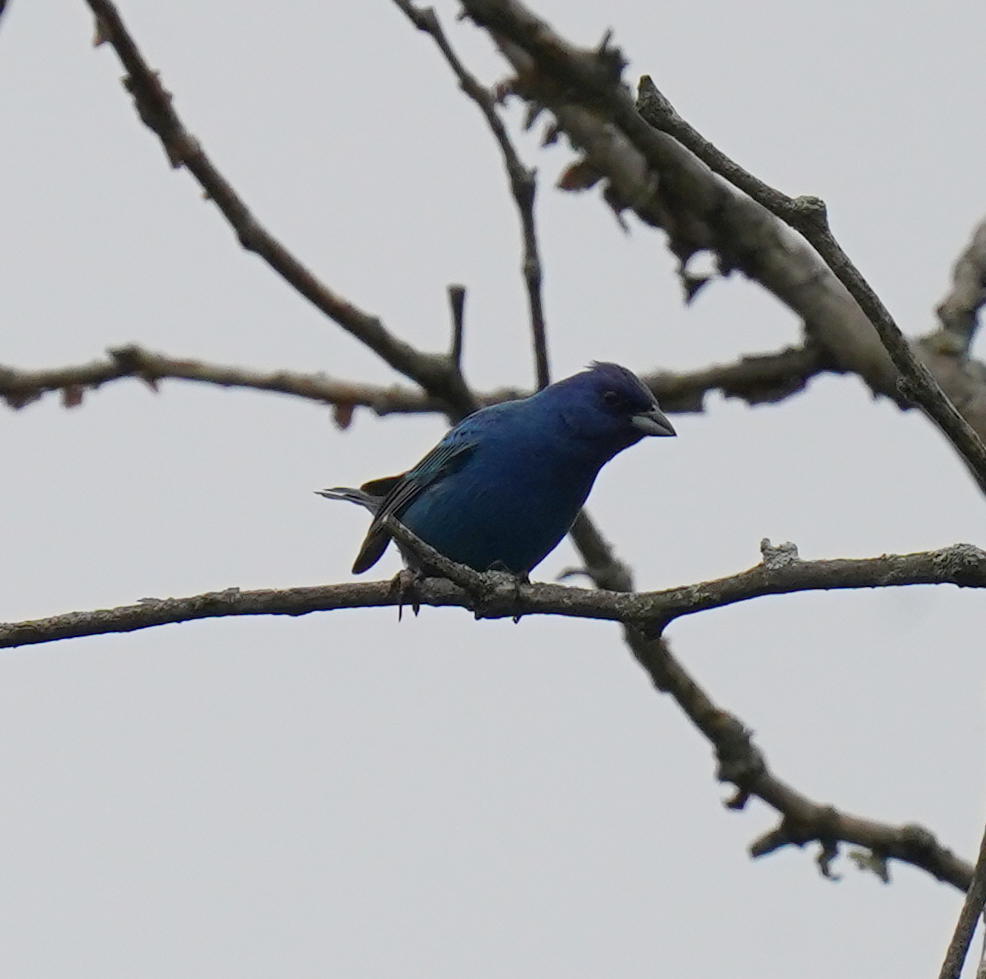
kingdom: Animalia
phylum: Chordata
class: Aves
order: Passeriformes
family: Cardinalidae
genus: Passerina
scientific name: Passerina cyanea
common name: Indigo bunting
